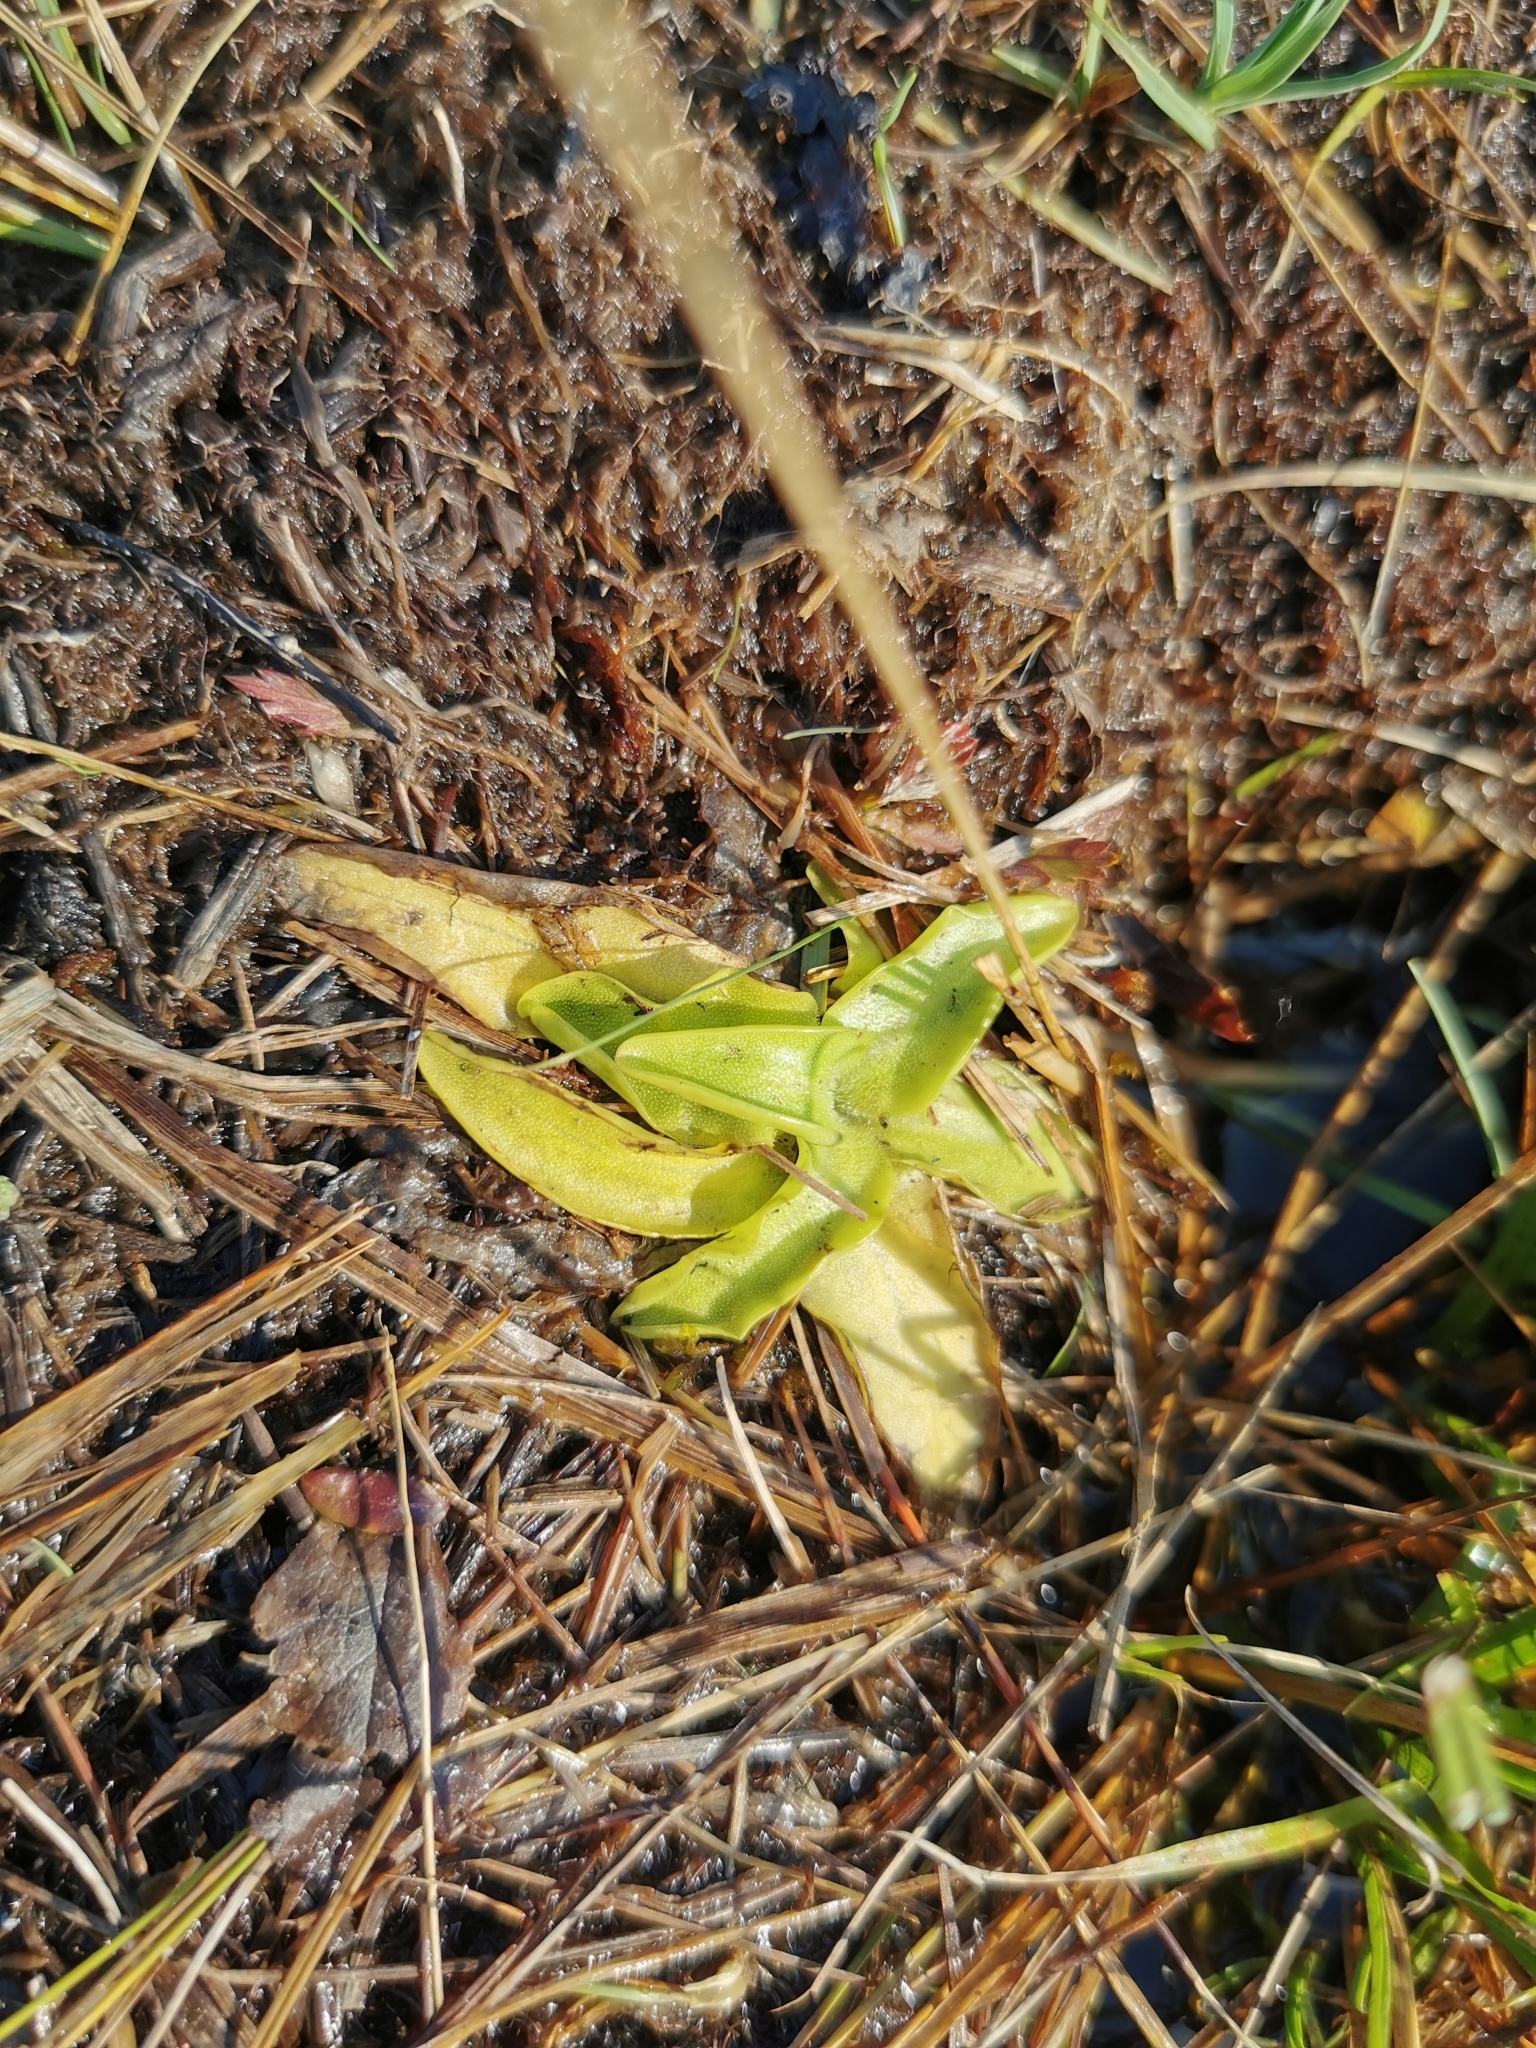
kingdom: Plantae
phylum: Tracheophyta
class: Magnoliopsida
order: Lamiales
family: Lentibulariaceae
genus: Pinguicula
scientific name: Pinguicula vulgaris
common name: Common butterwort
